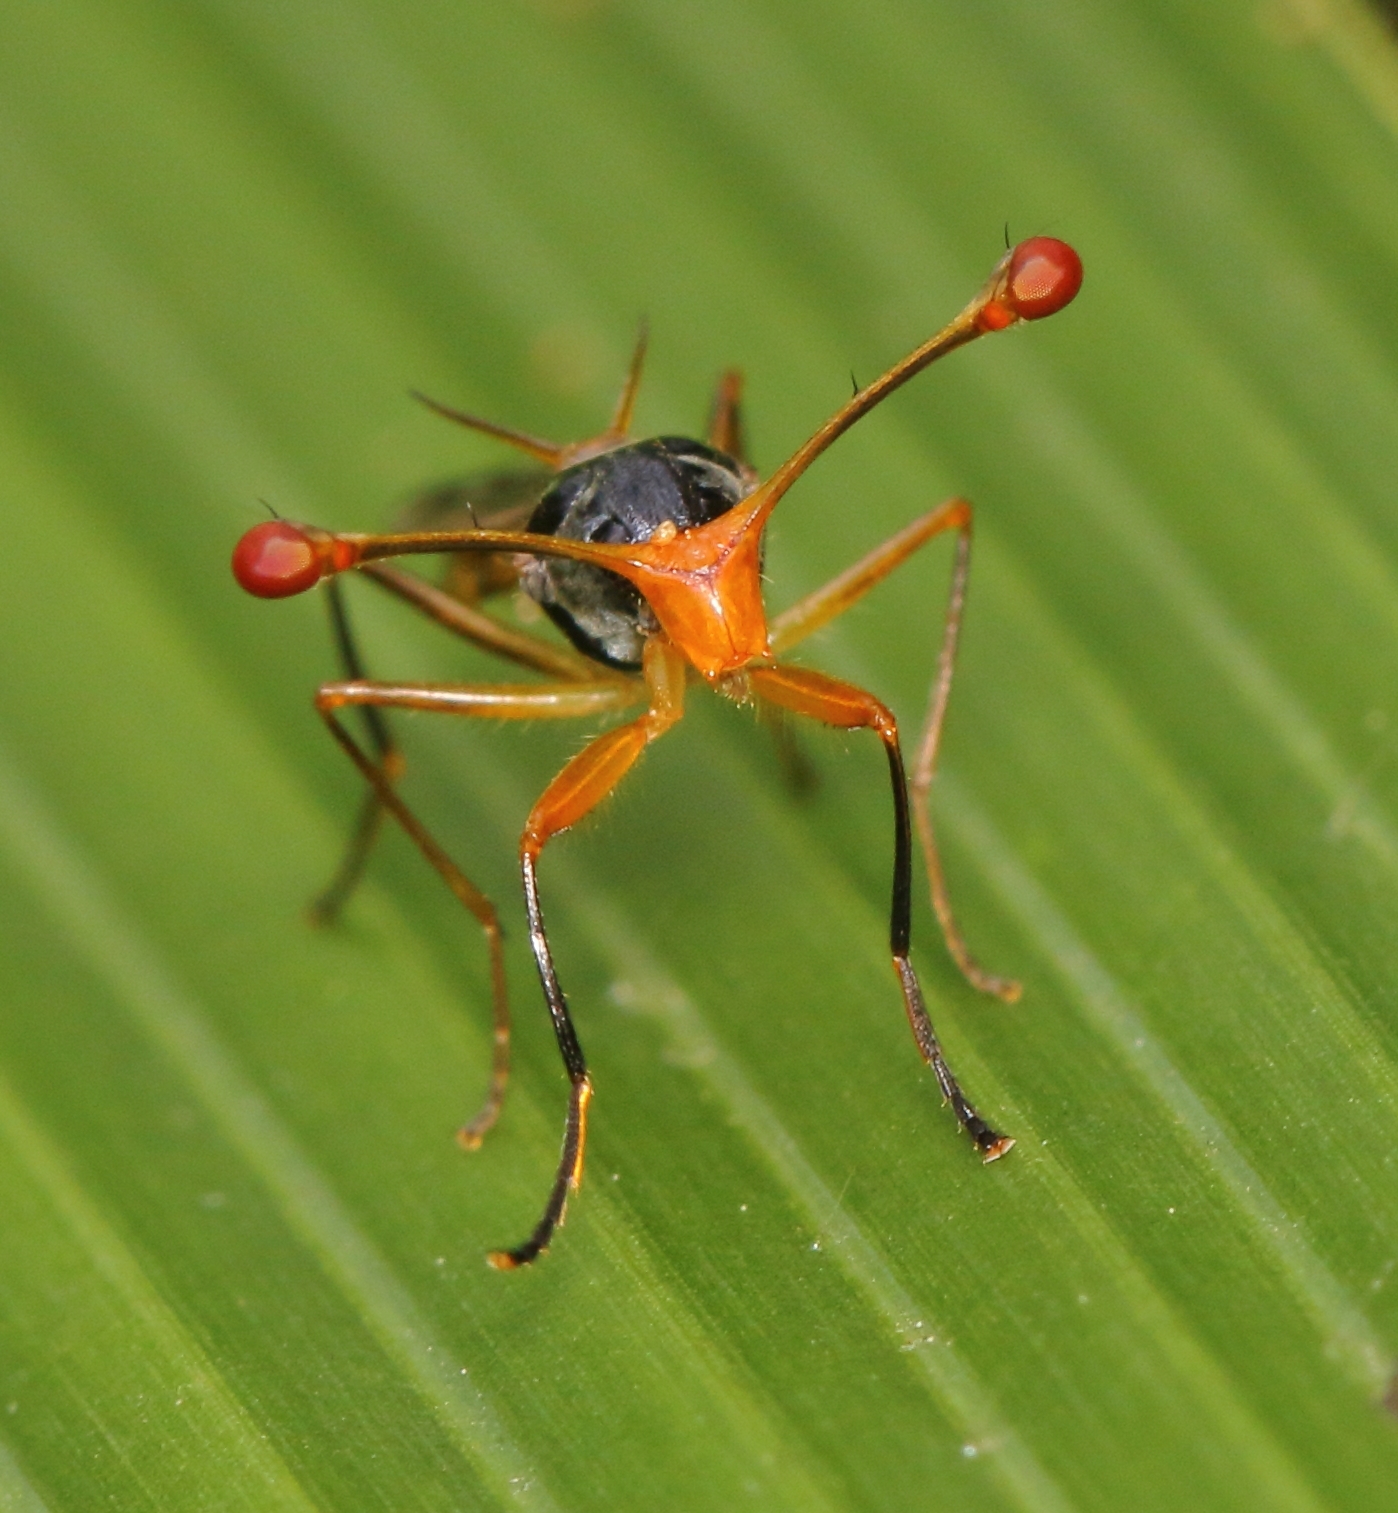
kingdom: Animalia
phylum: Arthropoda
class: Insecta
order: Diptera
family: Diopsidae
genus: Diopsis
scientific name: Diopsis stuckenbergi
